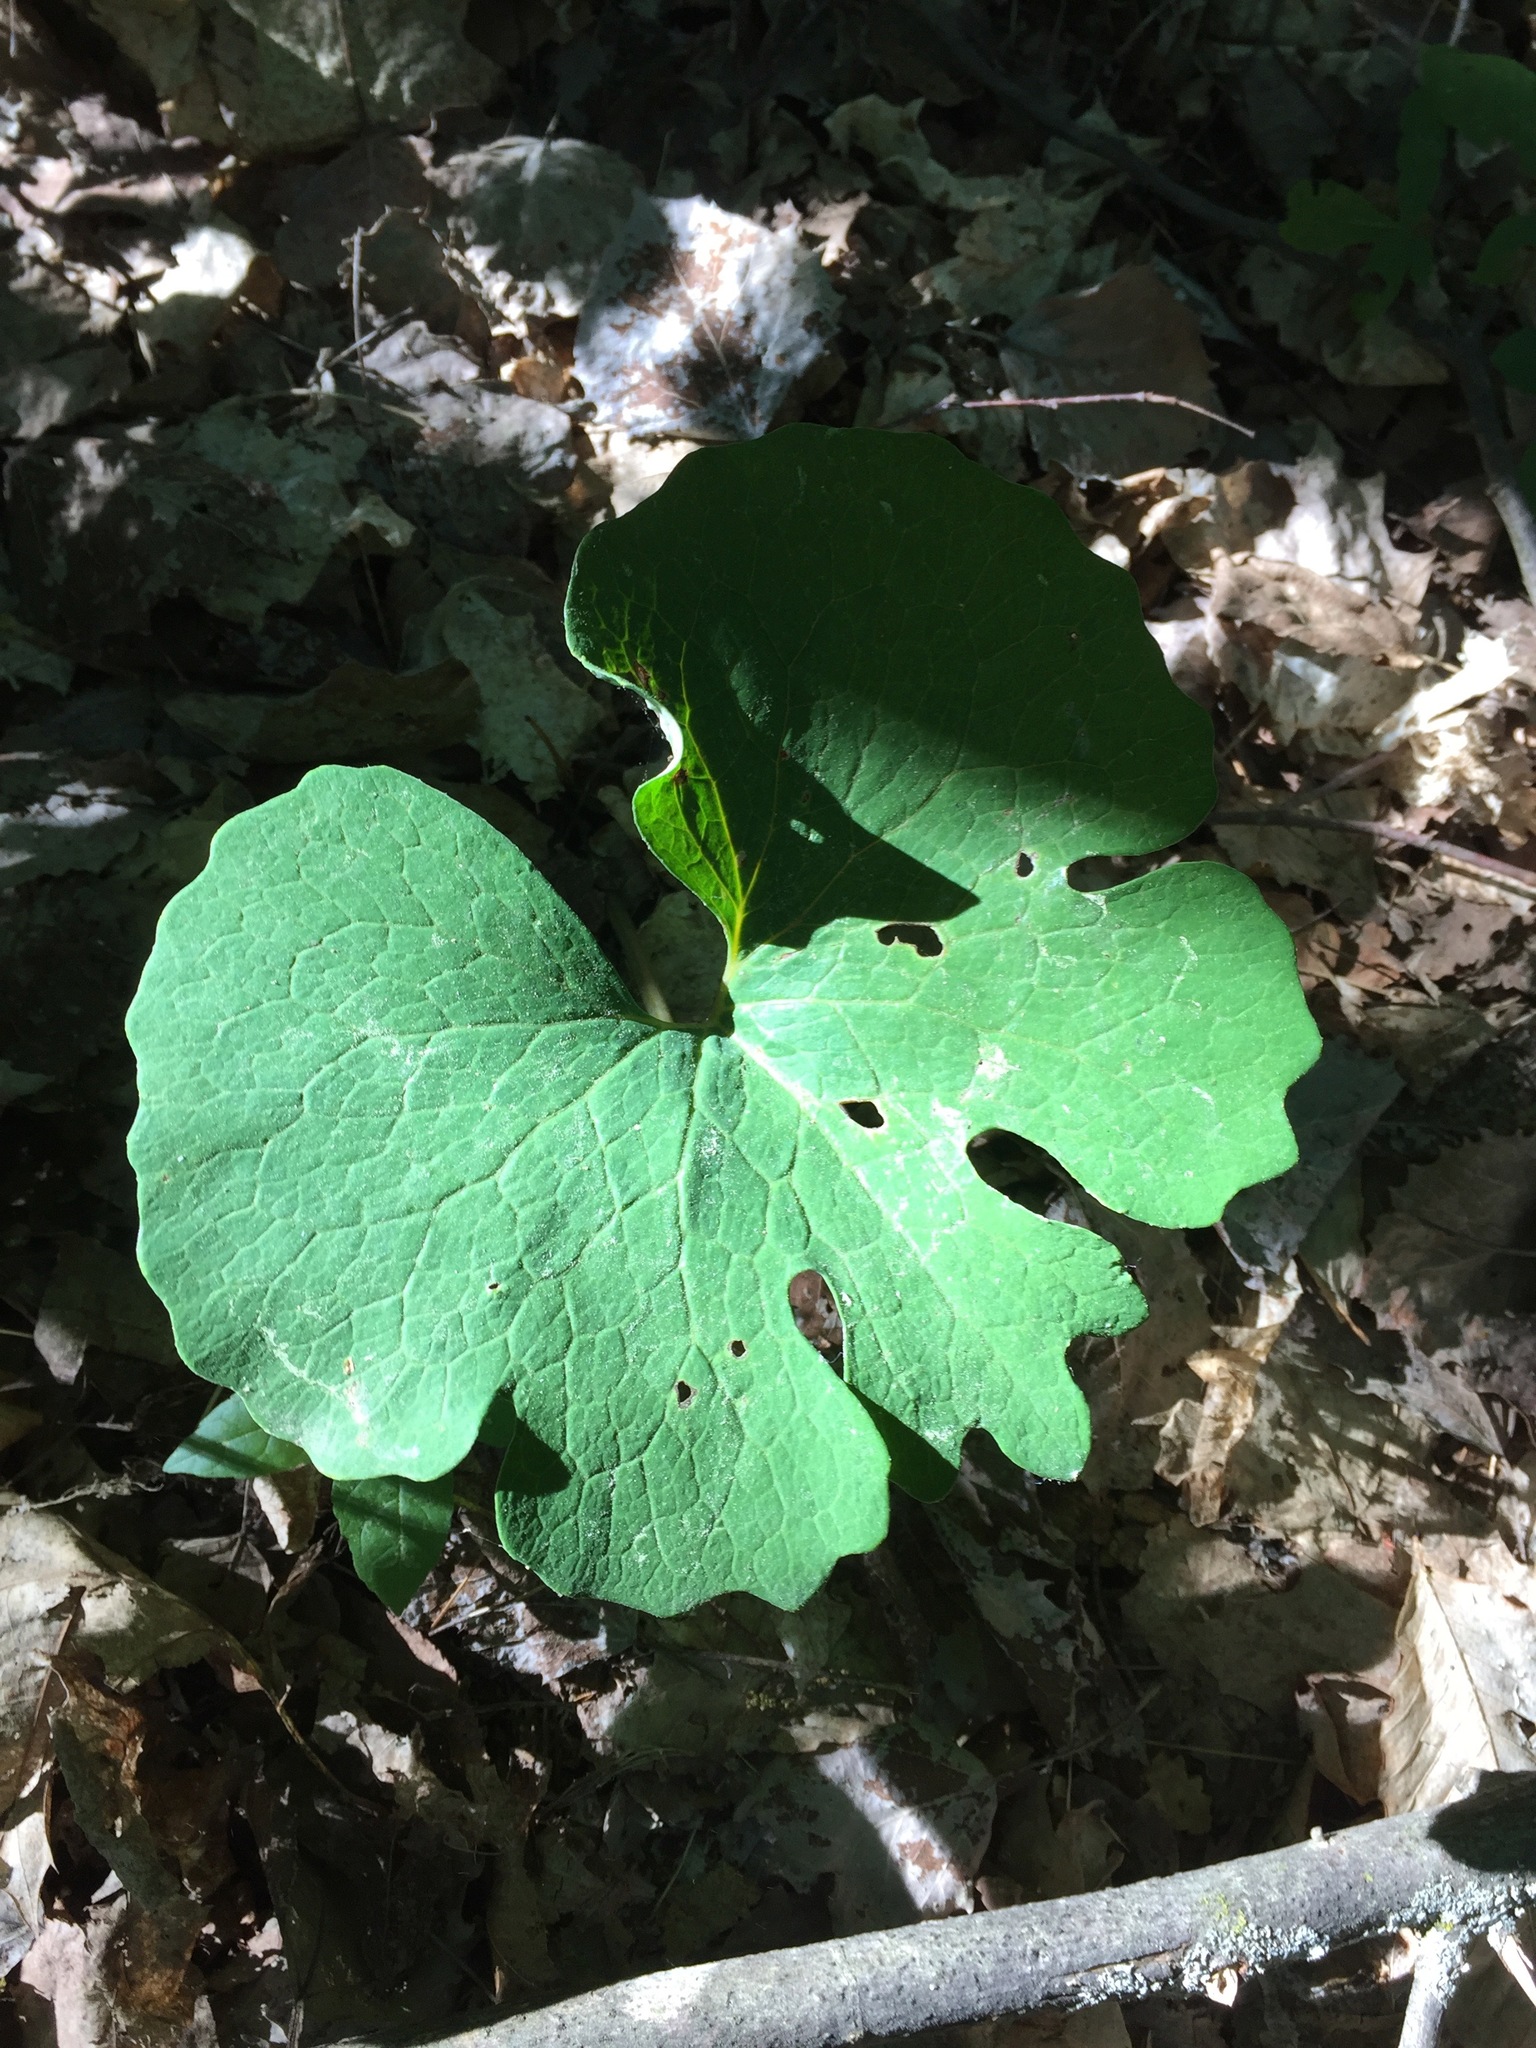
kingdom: Plantae
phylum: Tracheophyta
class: Magnoliopsida
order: Ranunculales
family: Papaveraceae
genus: Sanguinaria
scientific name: Sanguinaria canadensis
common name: Bloodroot
